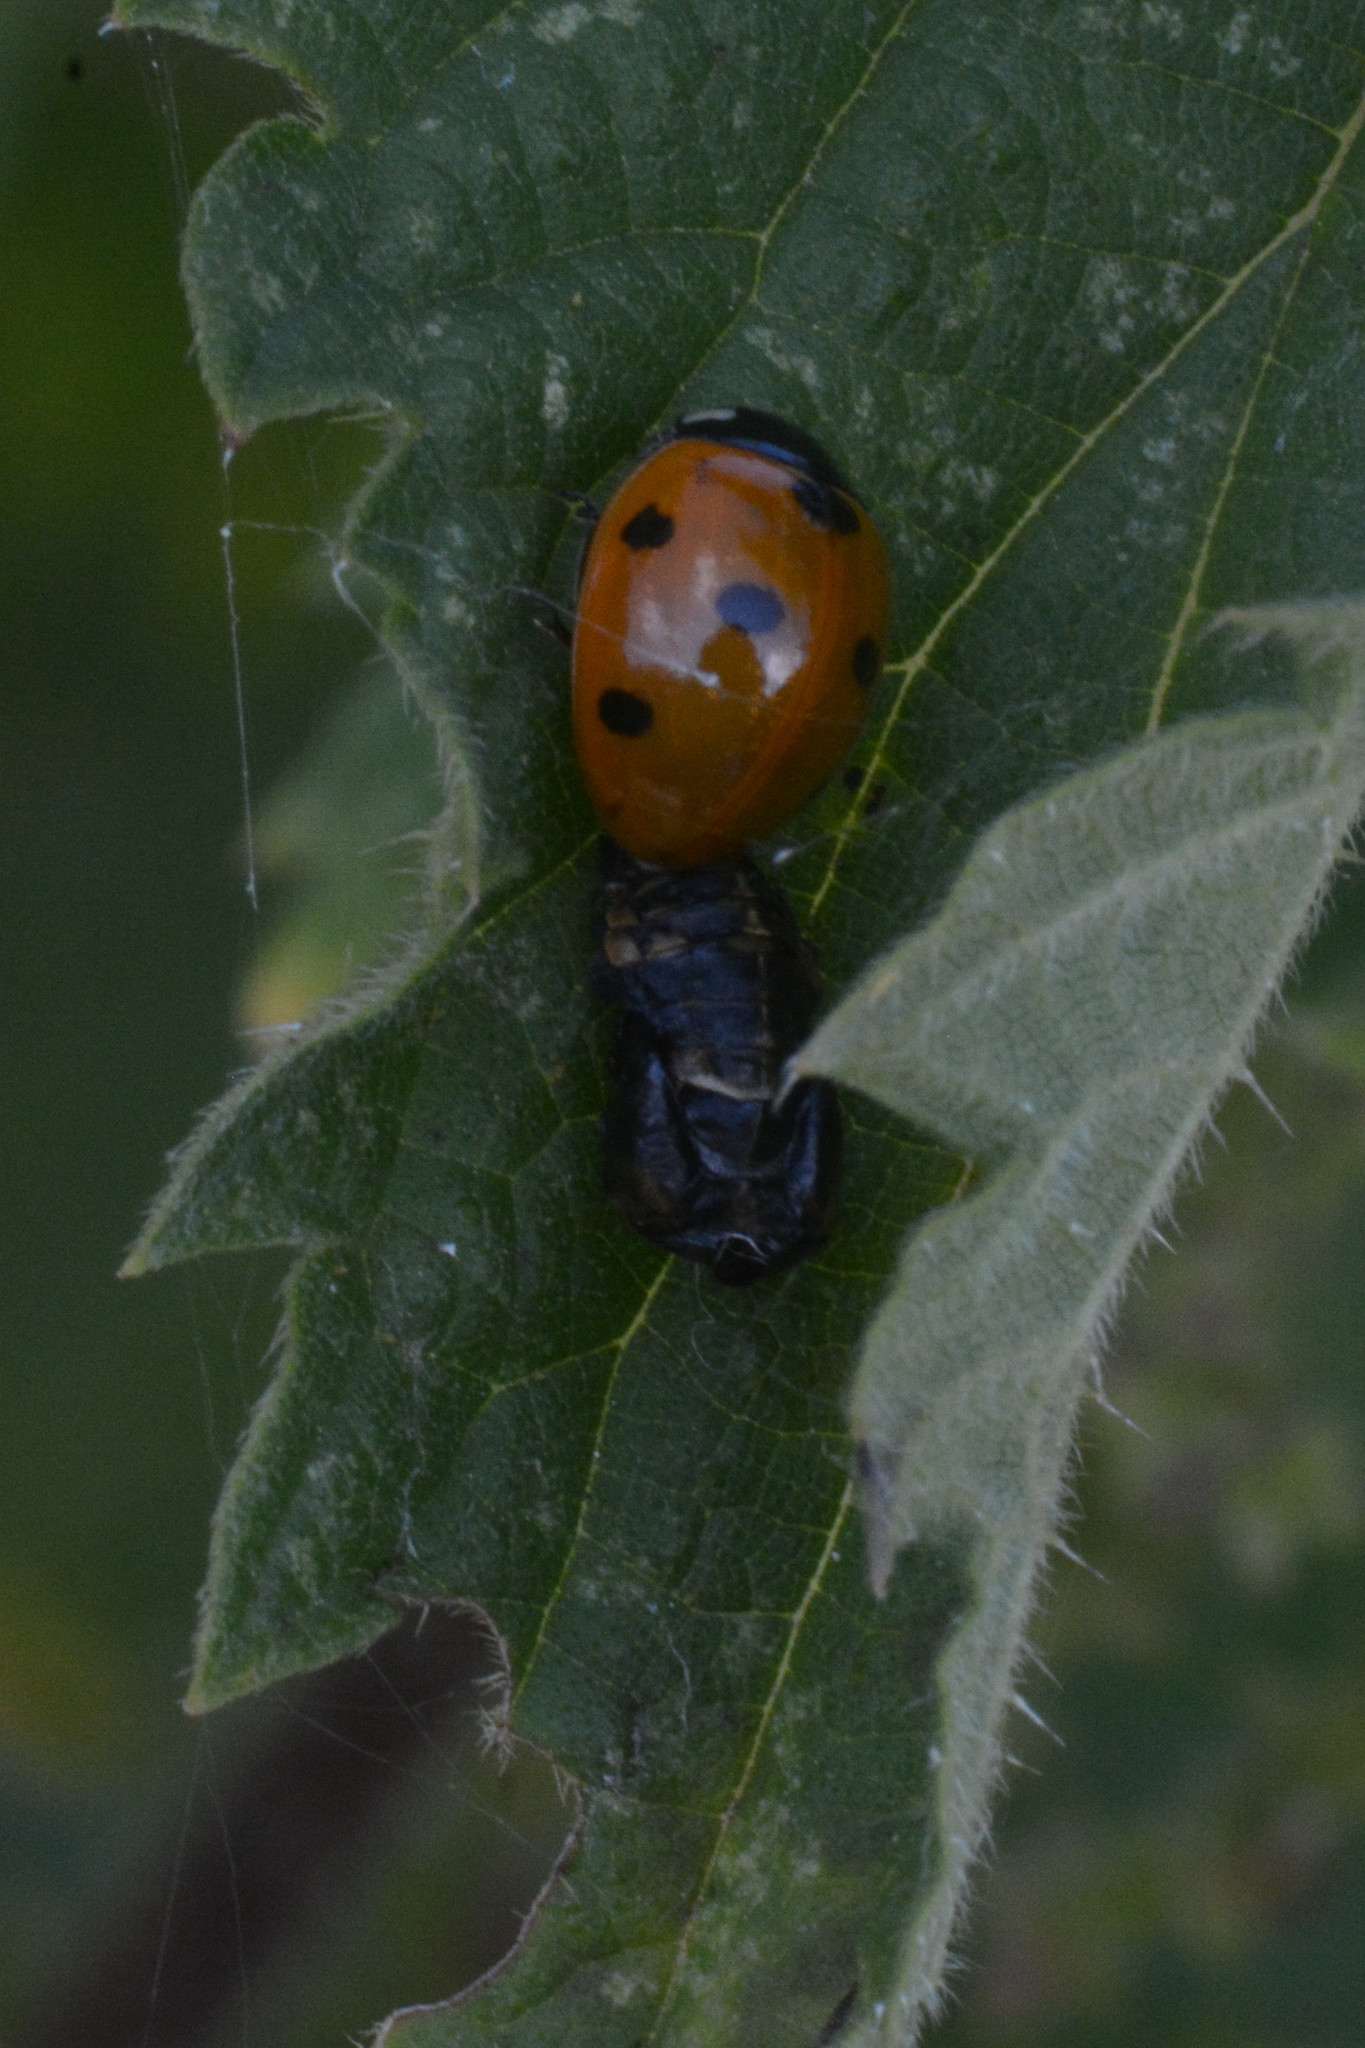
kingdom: Animalia
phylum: Arthropoda
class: Insecta
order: Coleoptera
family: Coccinellidae
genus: Coccinella
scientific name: Coccinella septempunctata
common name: Sevenspotted lady beetle
